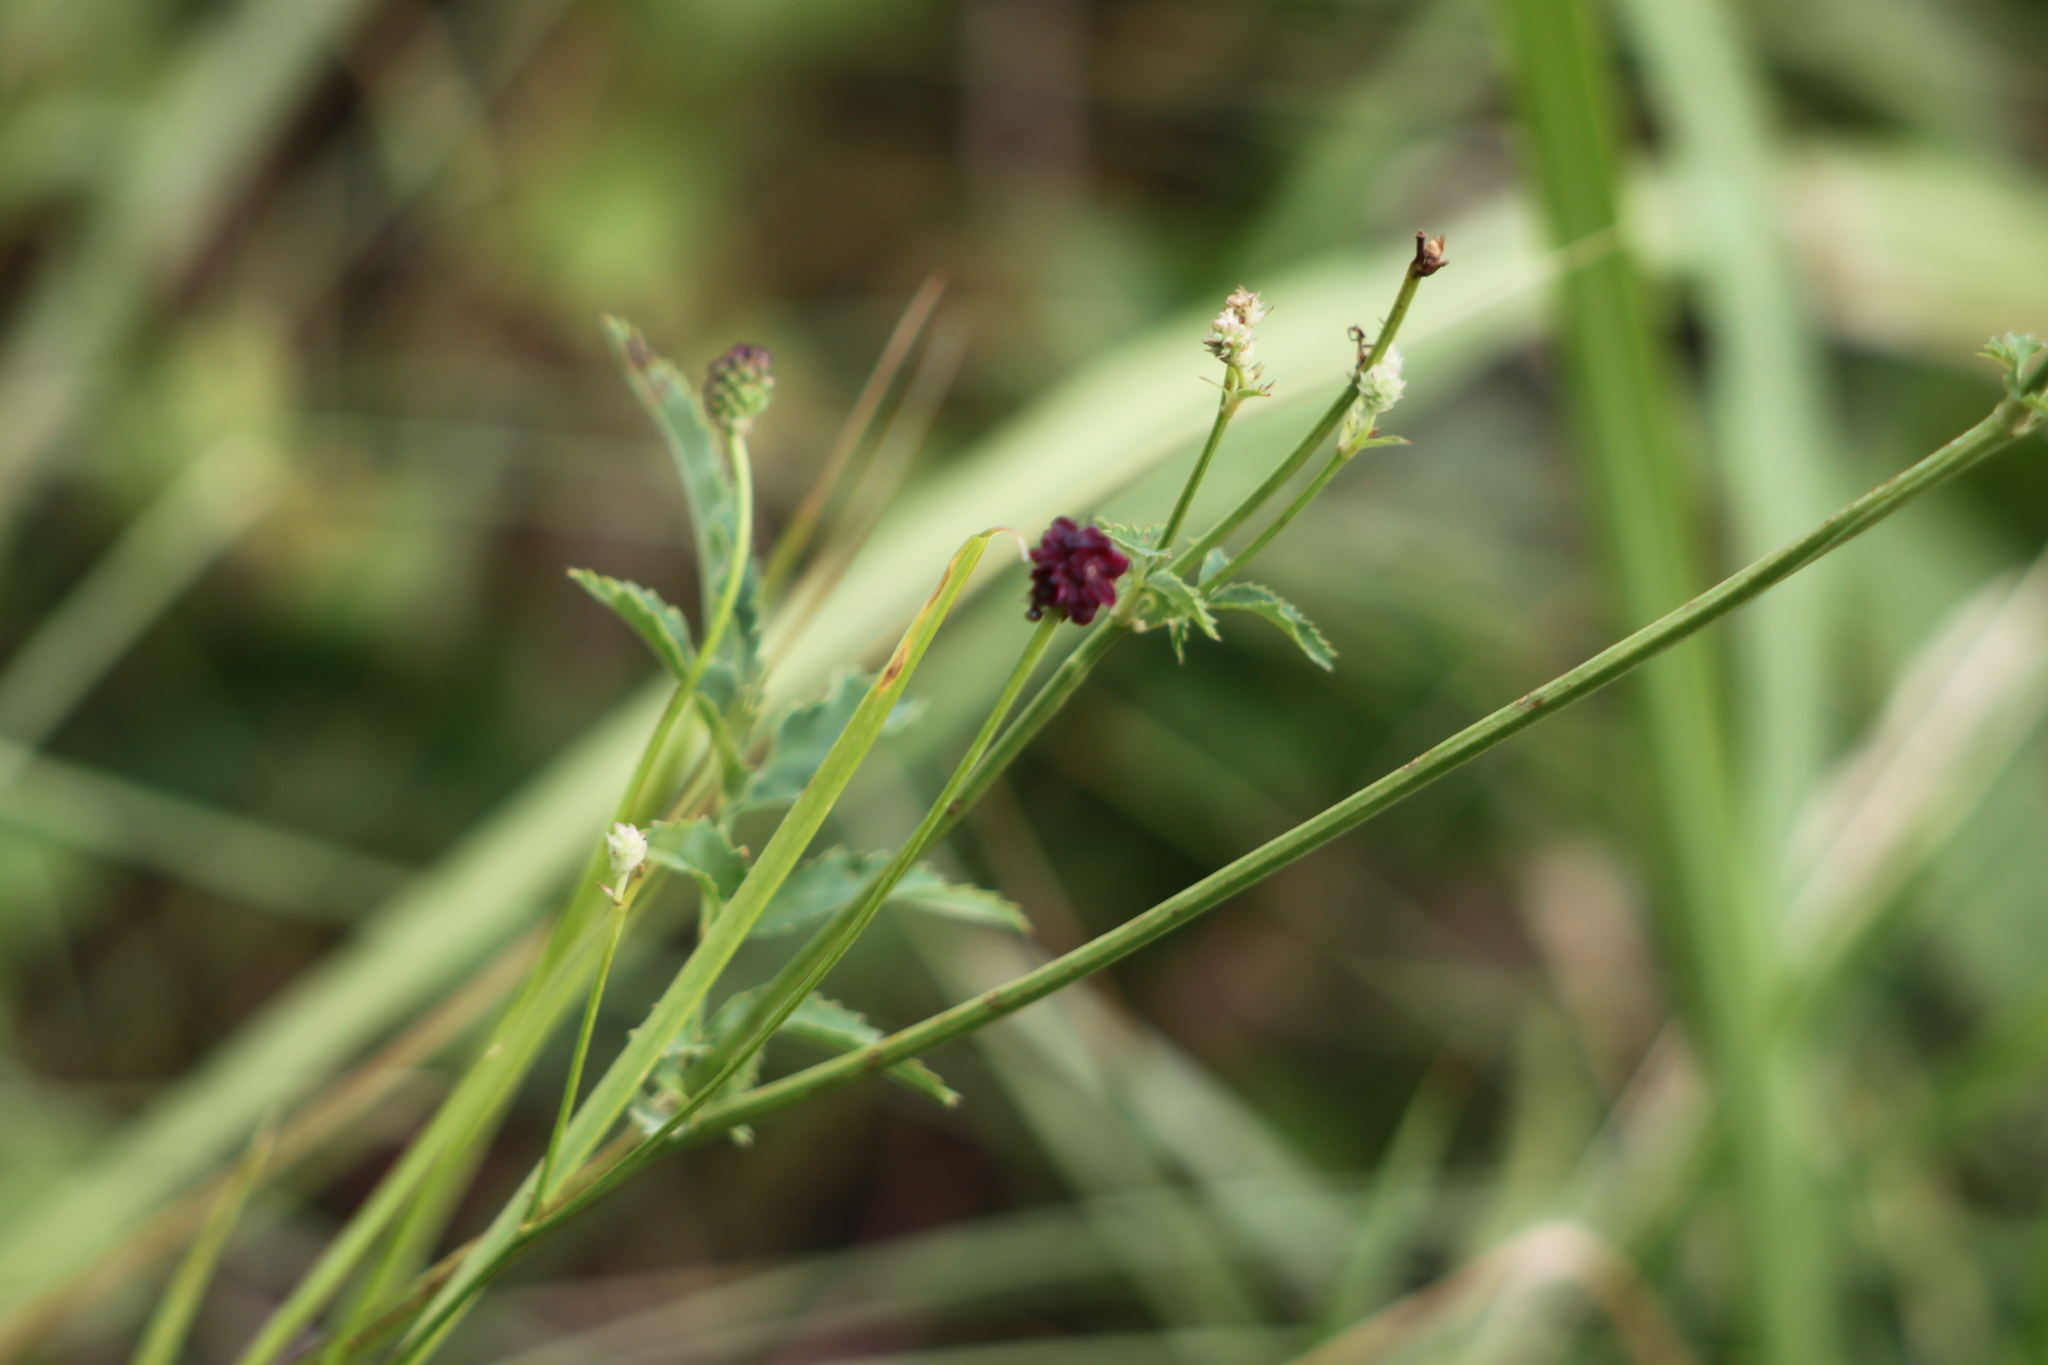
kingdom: Plantae
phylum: Tracheophyta
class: Magnoliopsida
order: Rosales
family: Rosaceae
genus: Sanguisorba
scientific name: Sanguisorba officinalis
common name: Great burnet
